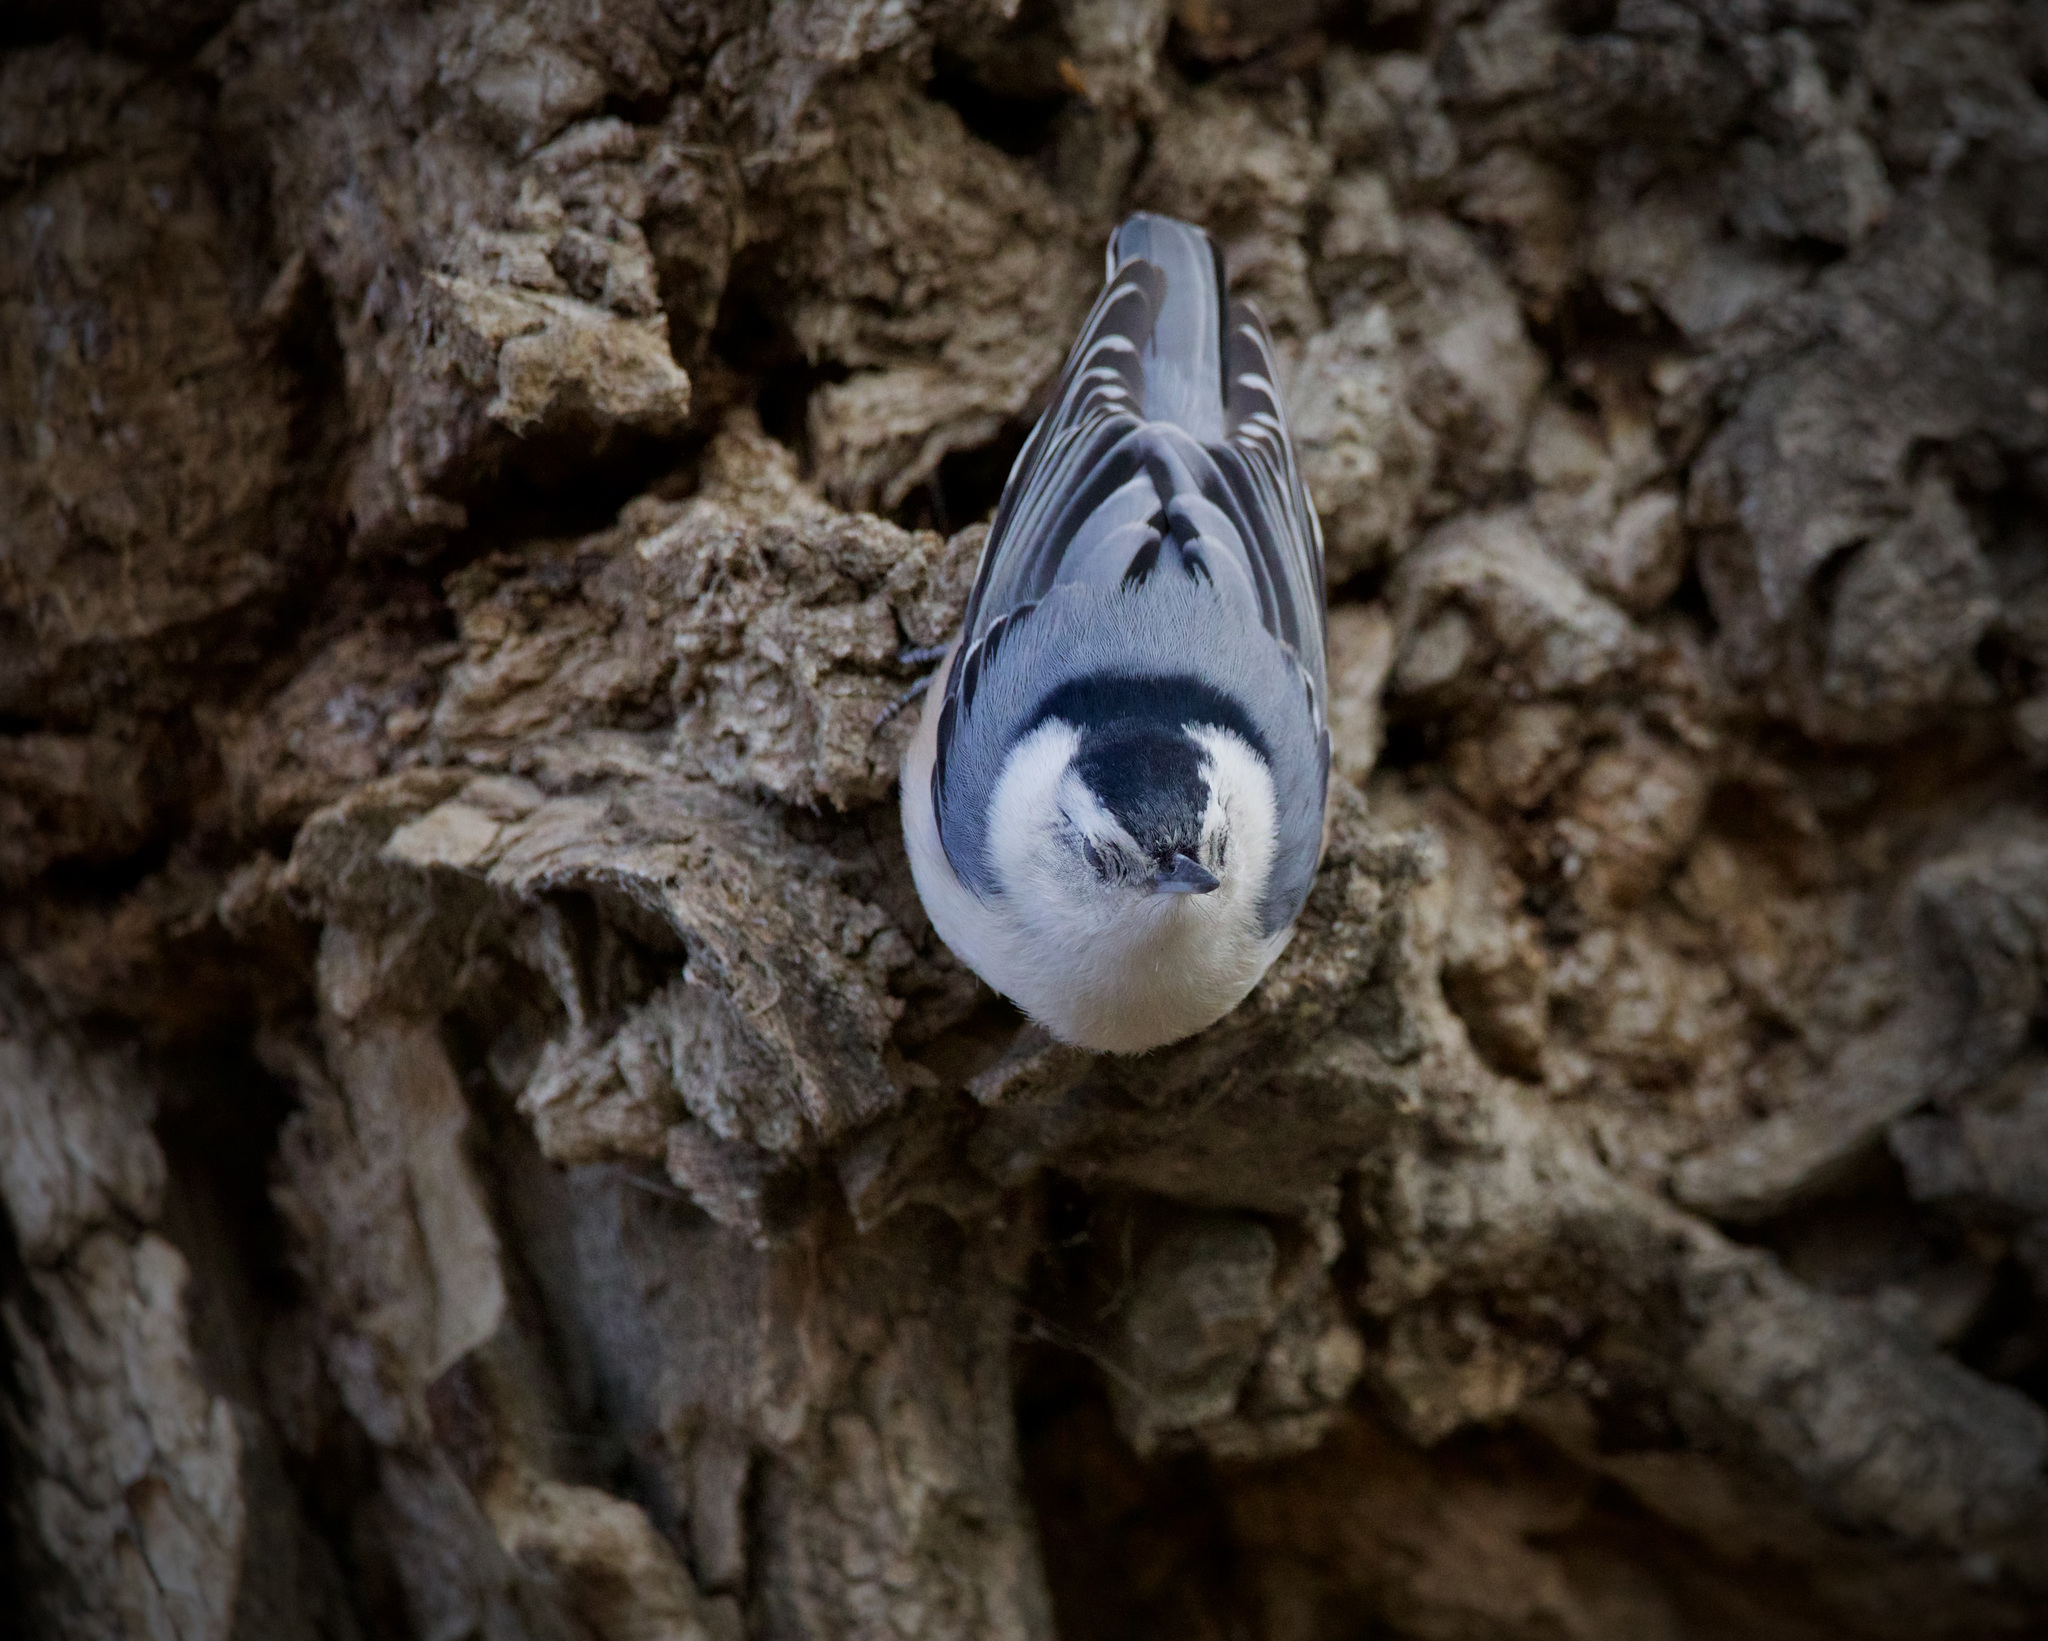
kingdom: Animalia
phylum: Chordata
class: Aves
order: Passeriformes
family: Sittidae
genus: Sitta
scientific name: Sitta carolinensis
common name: White-breasted nuthatch
